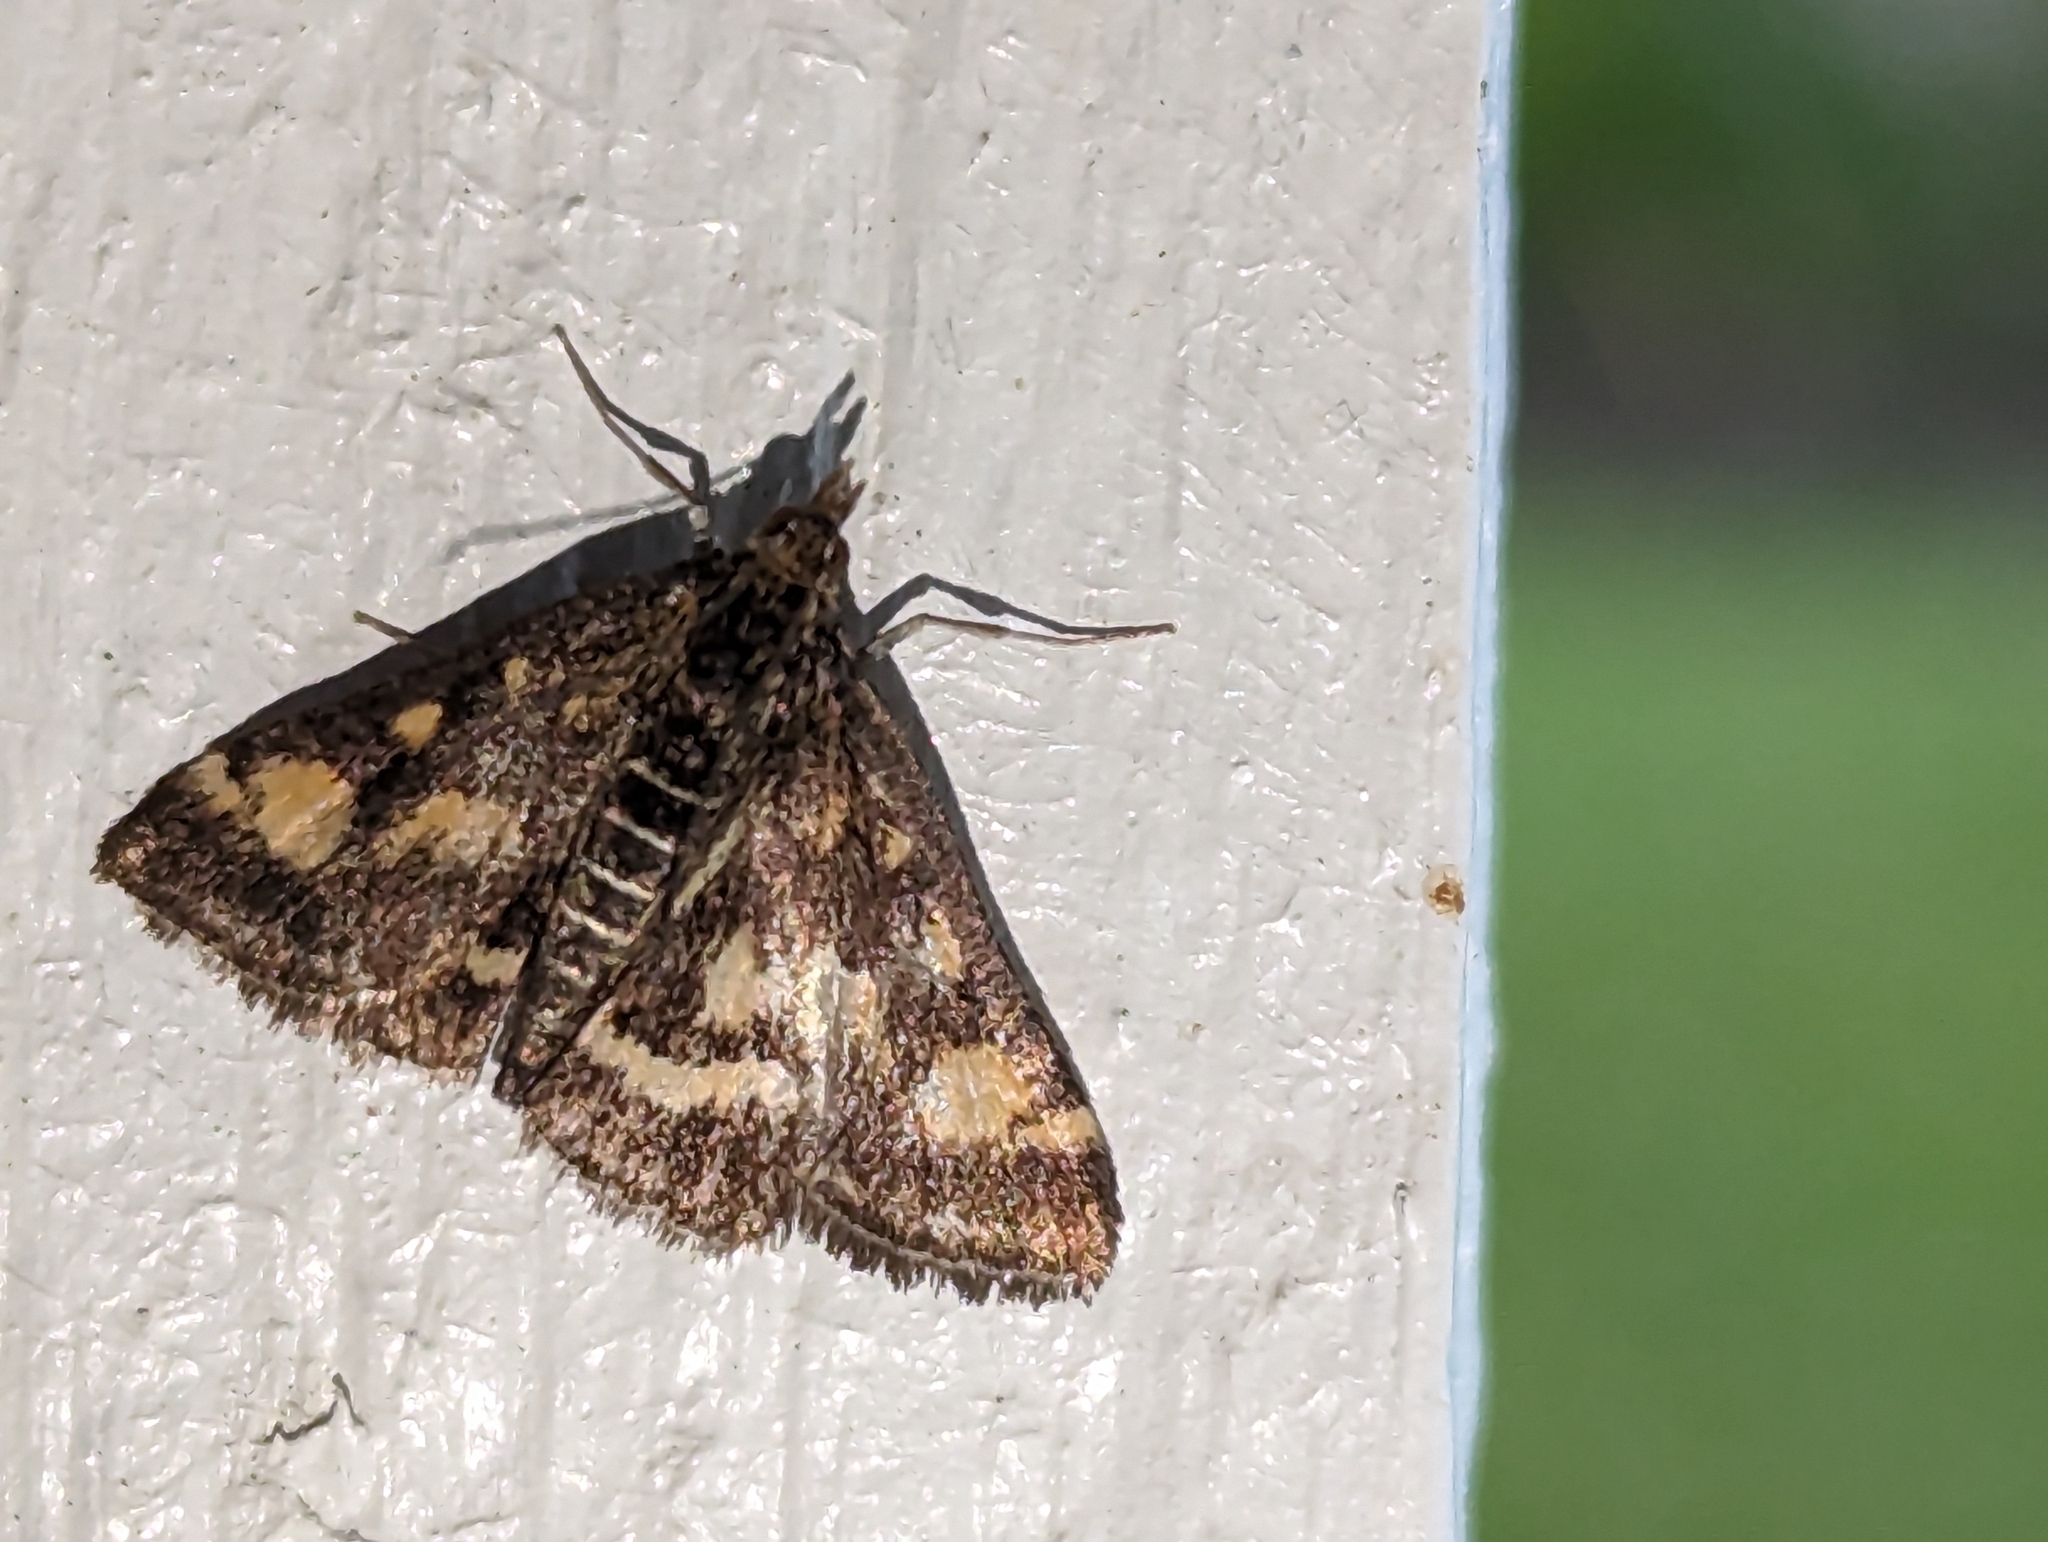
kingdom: Animalia
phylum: Arthropoda
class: Insecta
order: Lepidoptera
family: Crambidae
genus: Pyrausta
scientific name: Pyrausta purpuralis
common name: Common purple & gold
